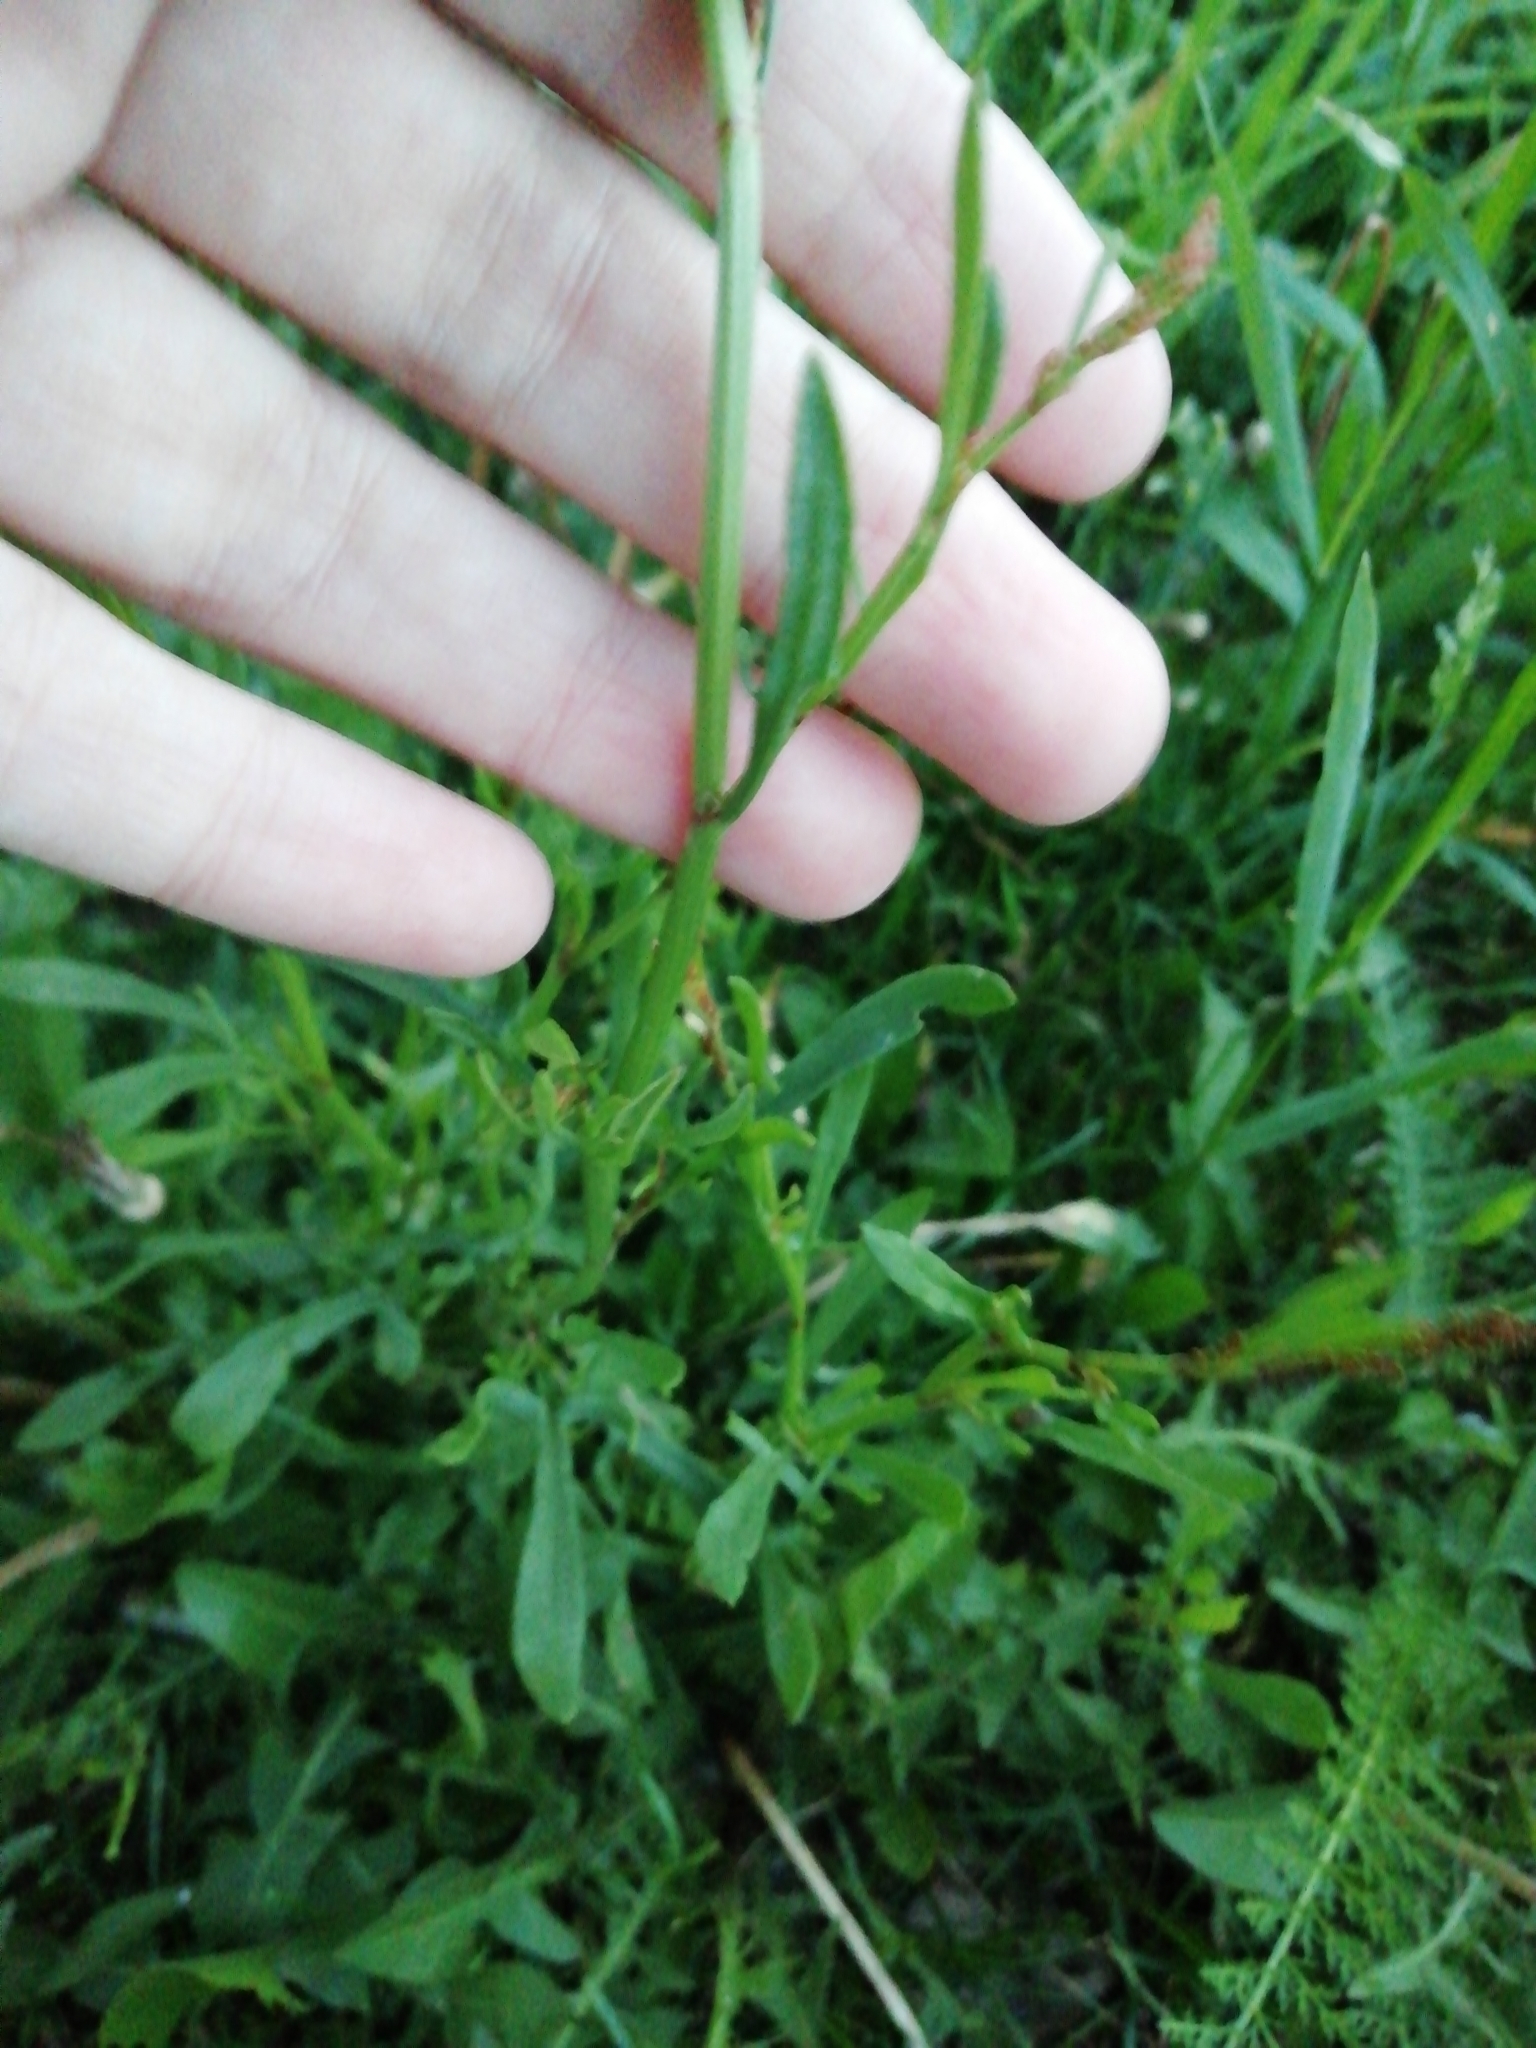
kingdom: Plantae
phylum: Tracheophyta
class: Magnoliopsida
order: Caryophyllales
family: Polygonaceae
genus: Rumex
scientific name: Rumex acetosella
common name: Common sheep sorrel
